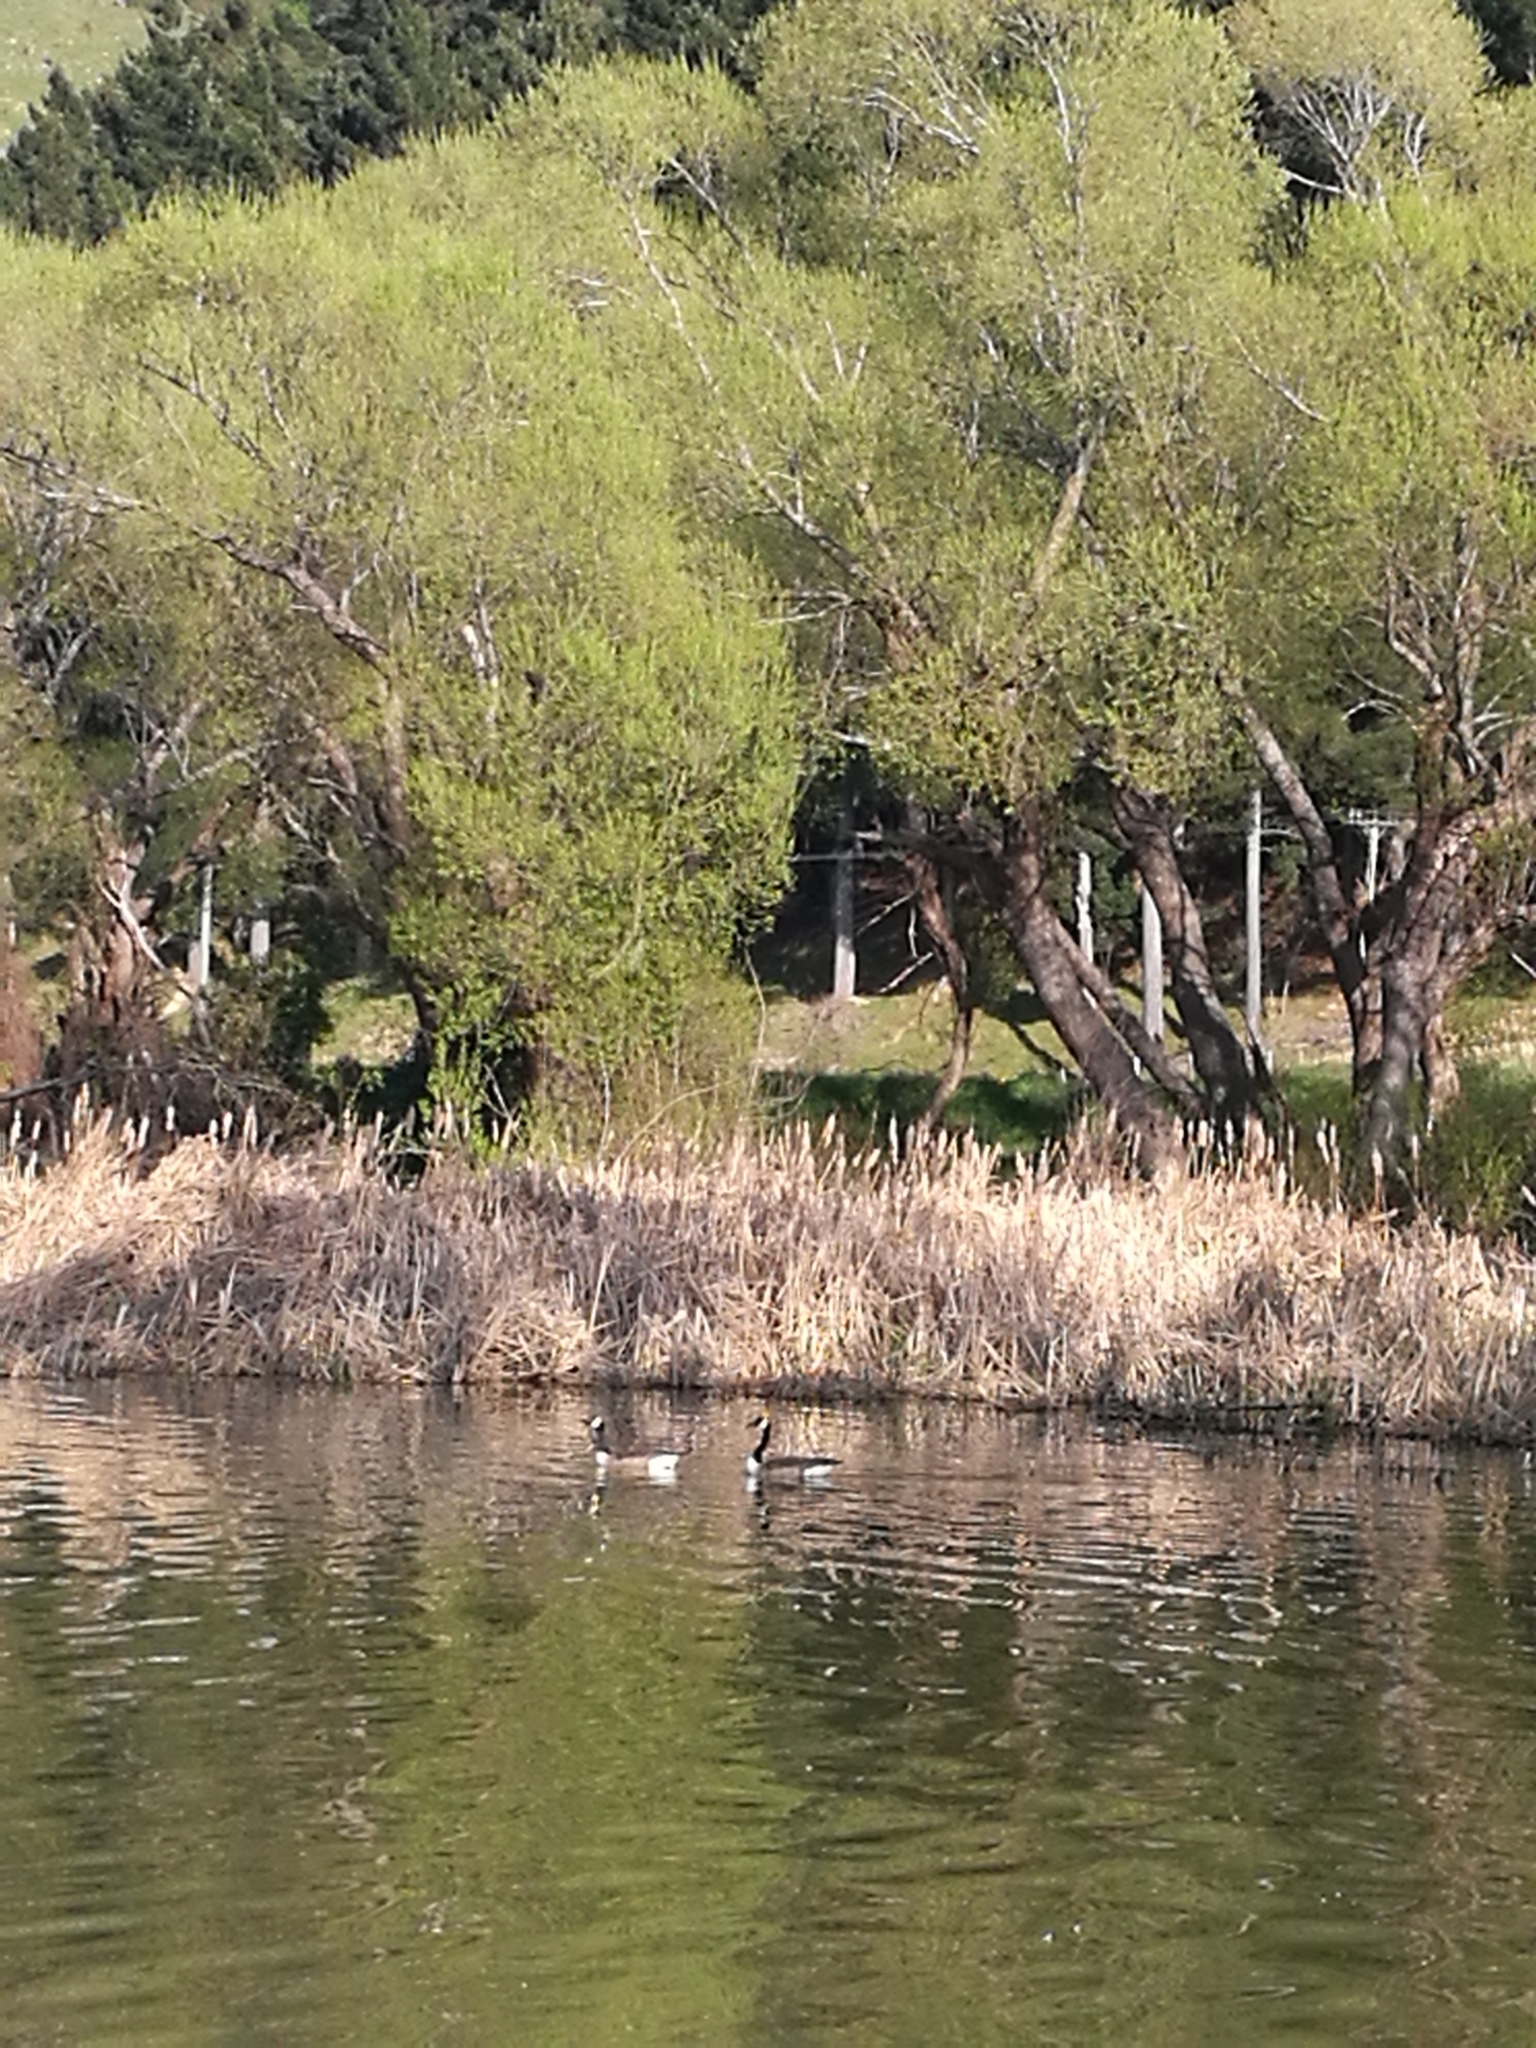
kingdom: Animalia
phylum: Chordata
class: Aves
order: Anseriformes
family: Anatidae
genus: Branta
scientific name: Branta canadensis
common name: Canada goose
